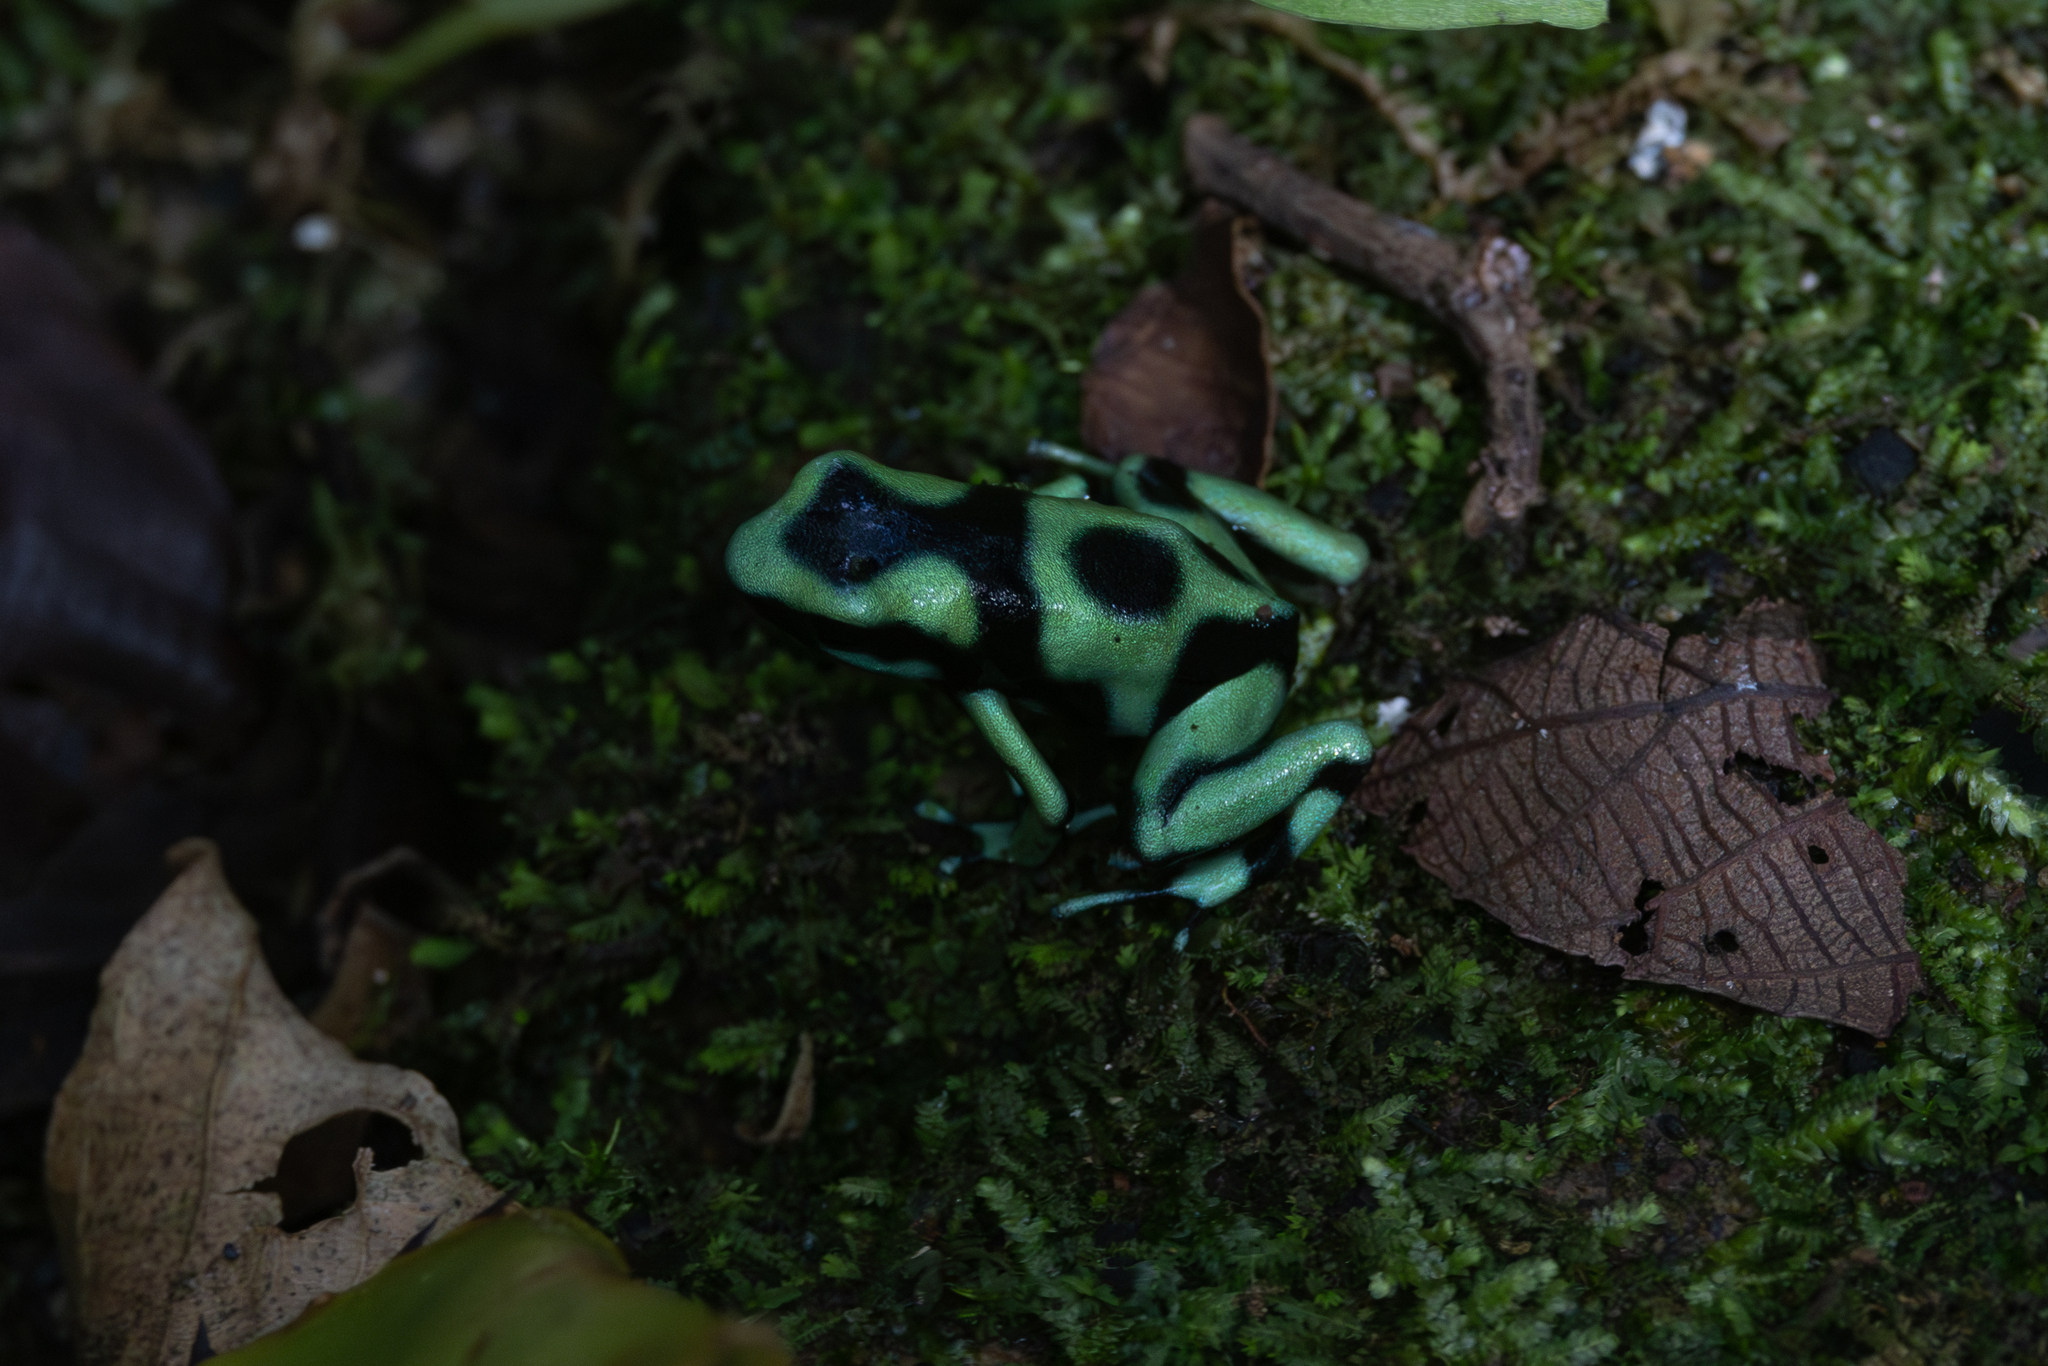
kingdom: Animalia
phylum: Chordata
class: Amphibia
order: Anura
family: Dendrobatidae
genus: Dendrobates
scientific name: Dendrobates auratus
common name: Green and black poison dart frog
